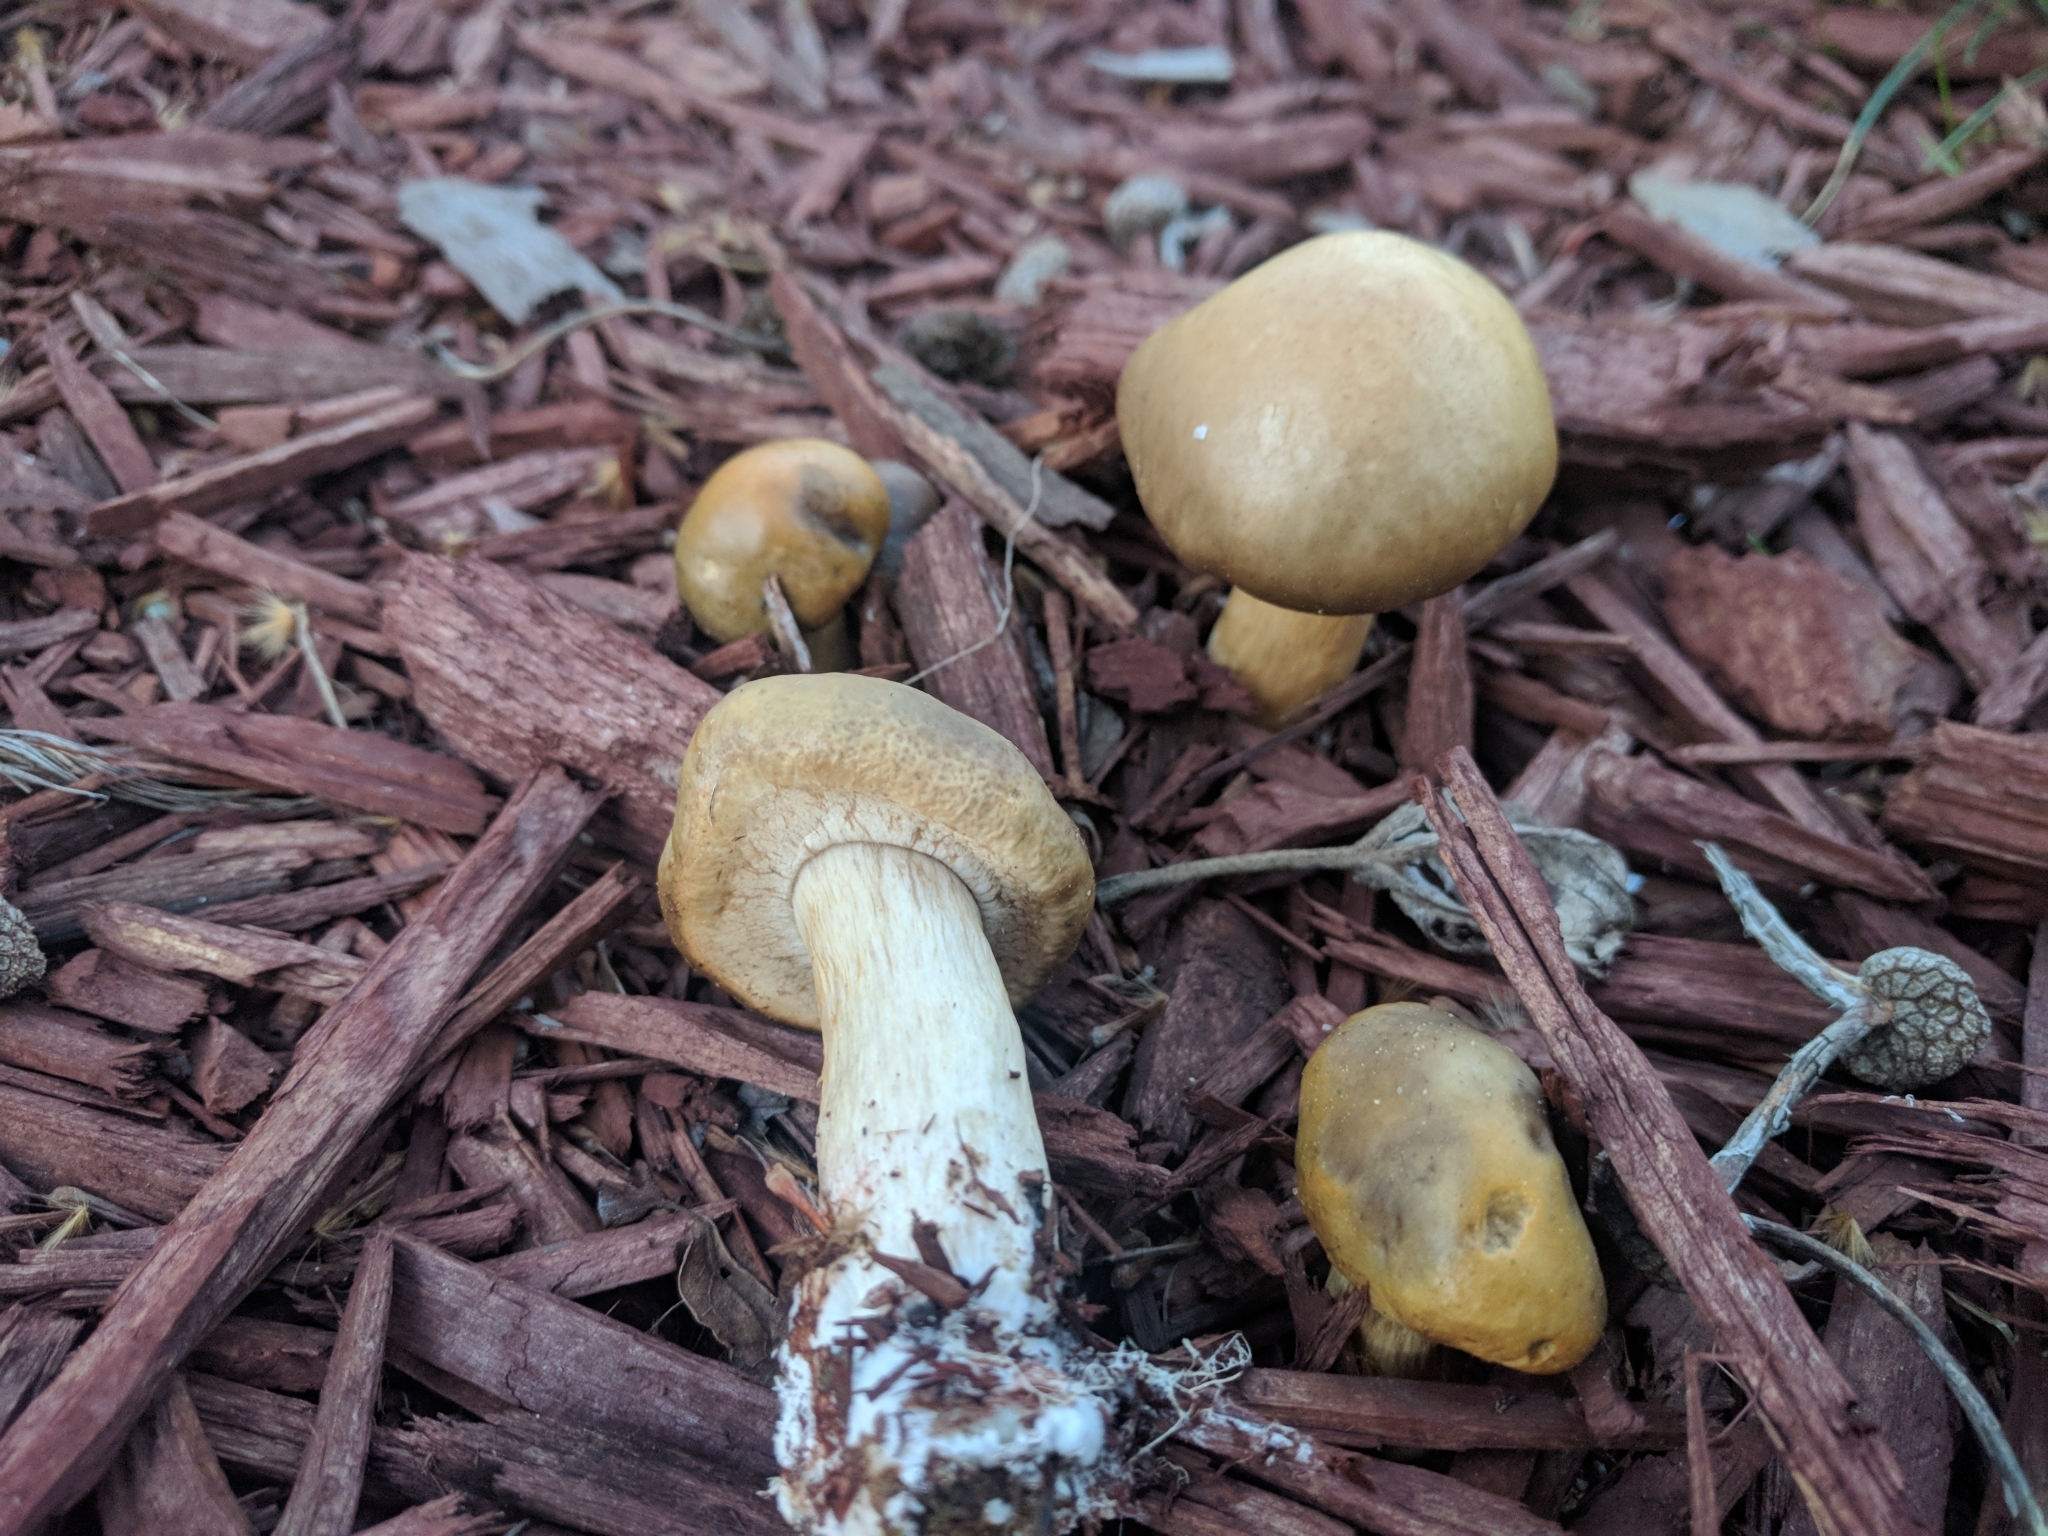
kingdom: Fungi
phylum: Basidiomycota
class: Agaricomycetes
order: Agaricales
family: Strophariaceae
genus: Agrocybe
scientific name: Agrocybe praecox
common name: Spring fieldcap
